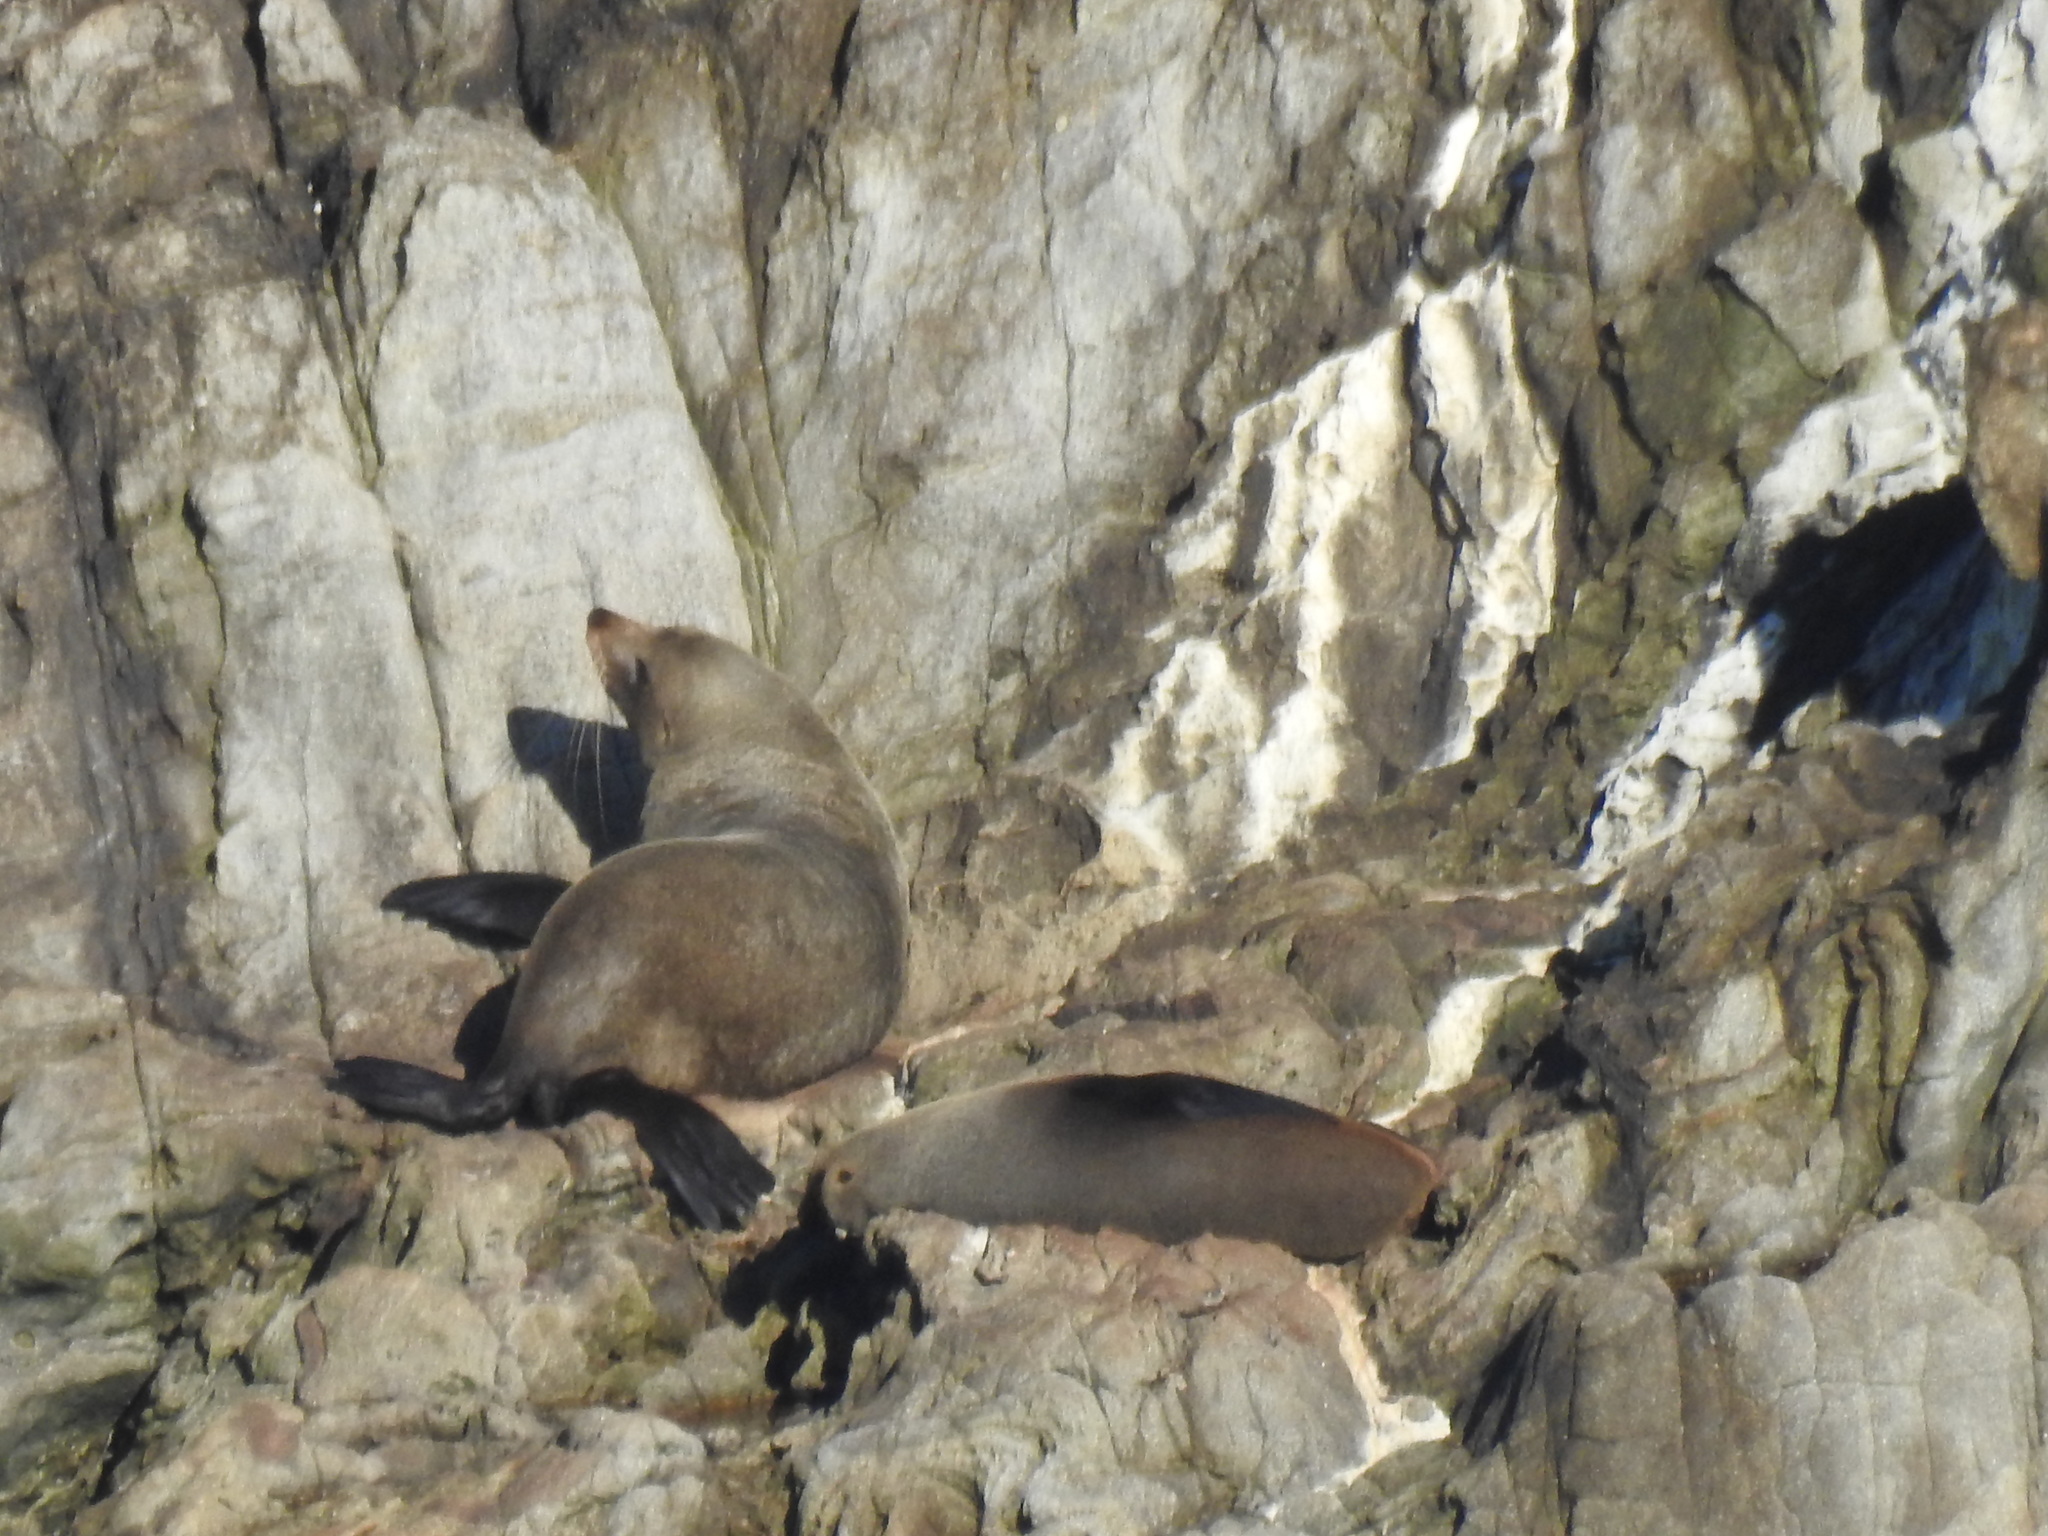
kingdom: Animalia
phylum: Chordata
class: Mammalia
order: Carnivora
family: Otariidae
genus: Arctocephalus
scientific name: Arctocephalus forsteri
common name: New zealand fur seal
